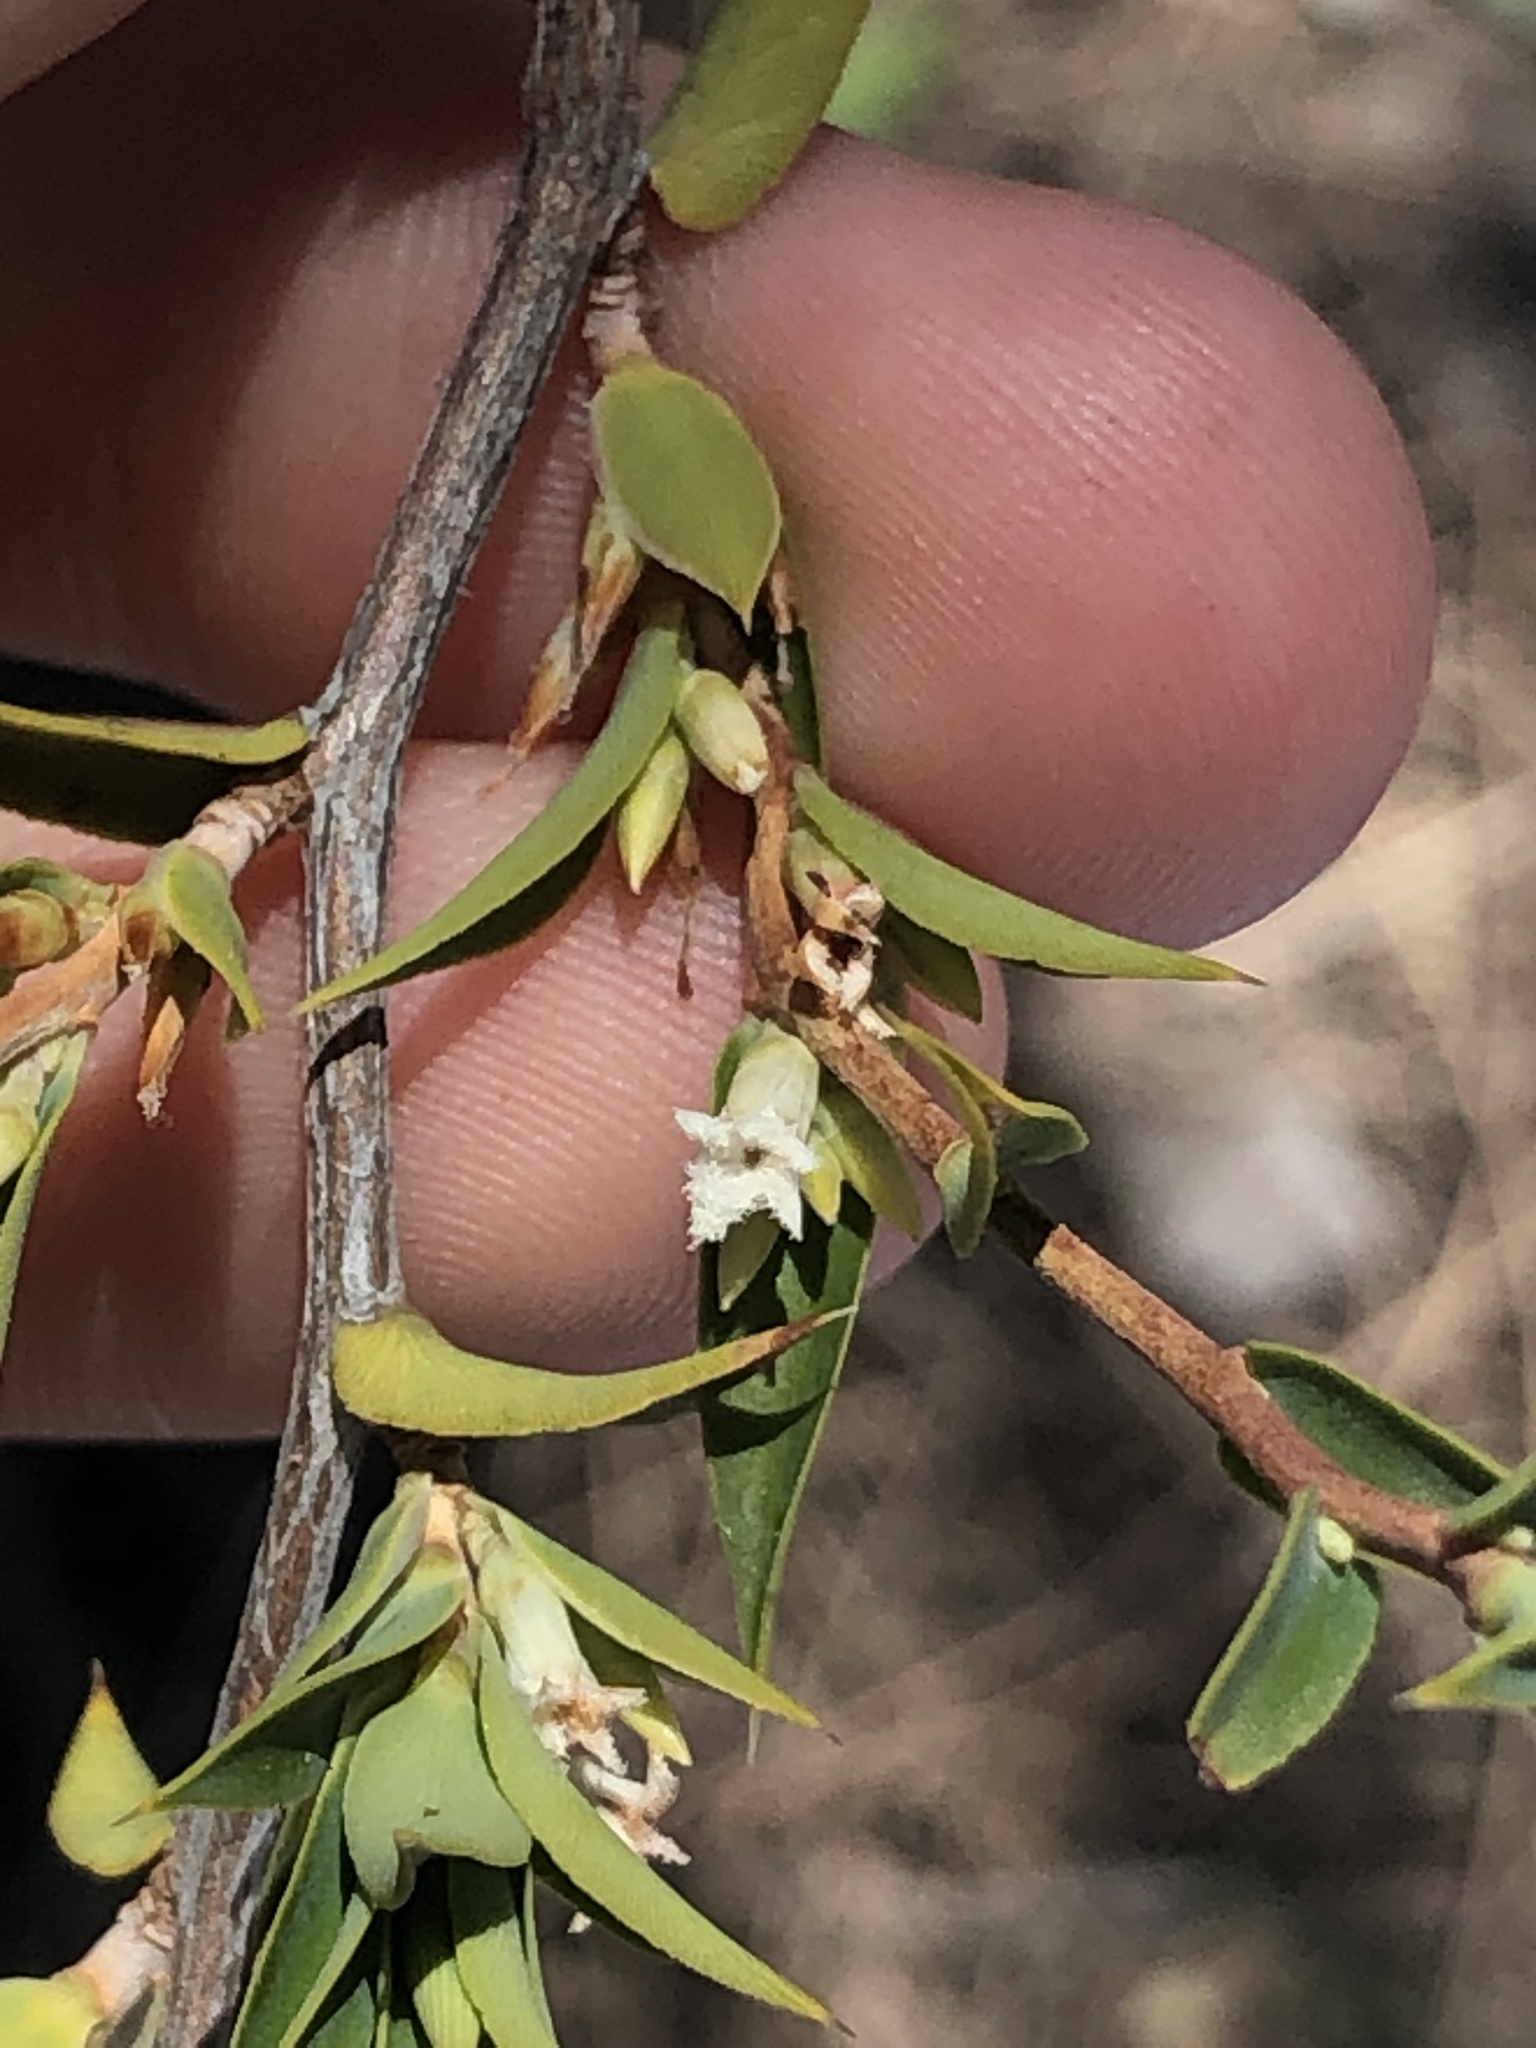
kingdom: Plantae
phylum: Tracheophyta
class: Magnoliopsida
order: Ericales
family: Ericaceae
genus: Styphelia
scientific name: Styphelia rufa
